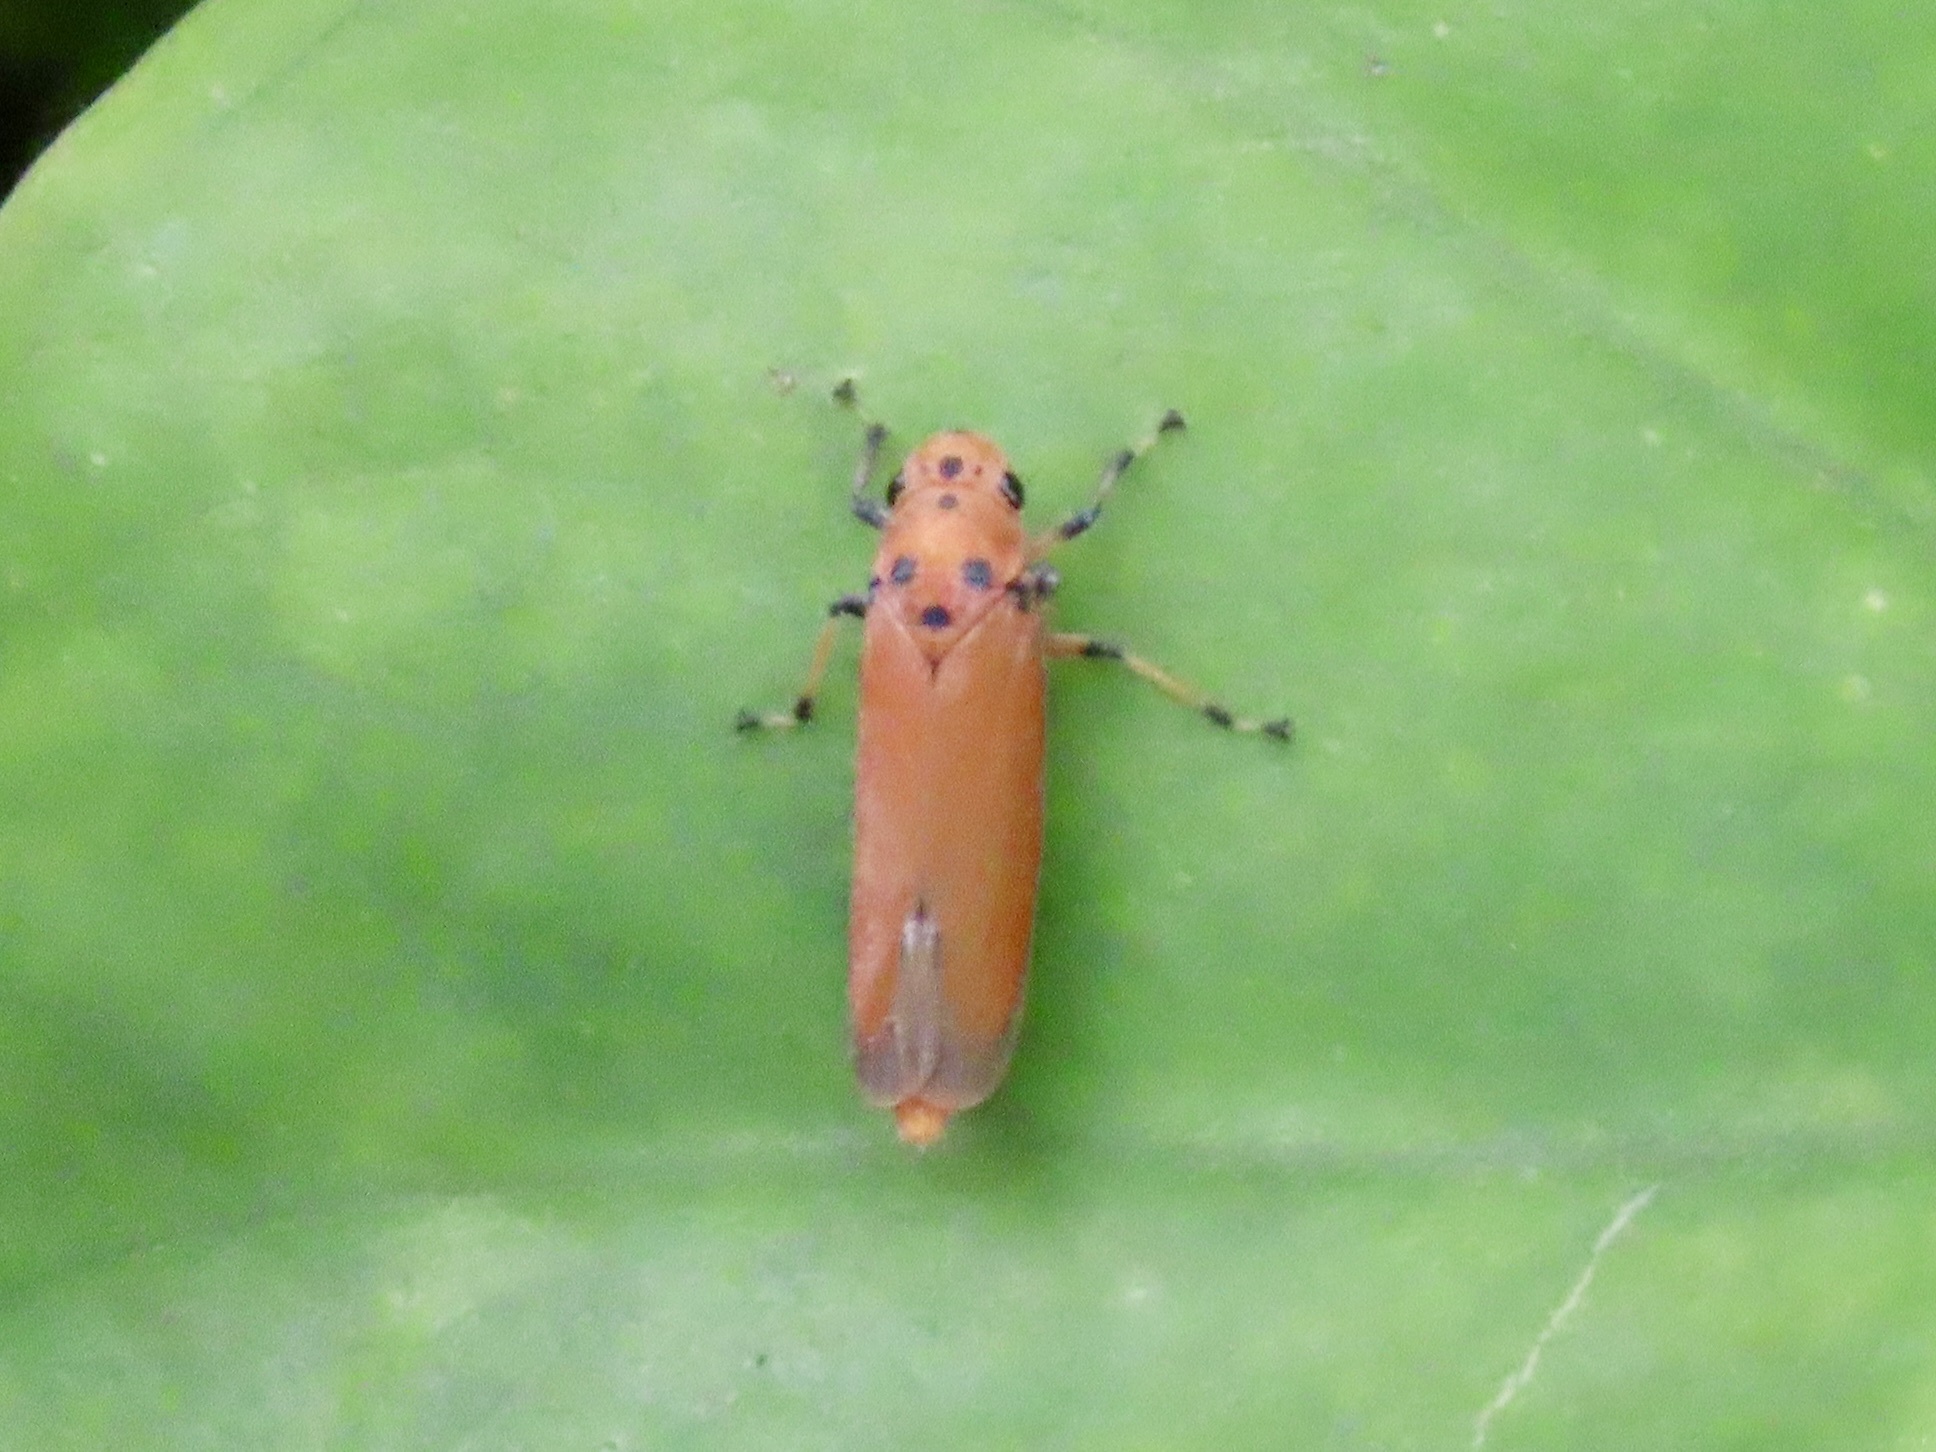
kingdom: Animalia
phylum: Arthropoda
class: Insecta
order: Hemiptera
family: Cicadellidae
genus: Bothrogonia
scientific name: Bothrogonia addita
